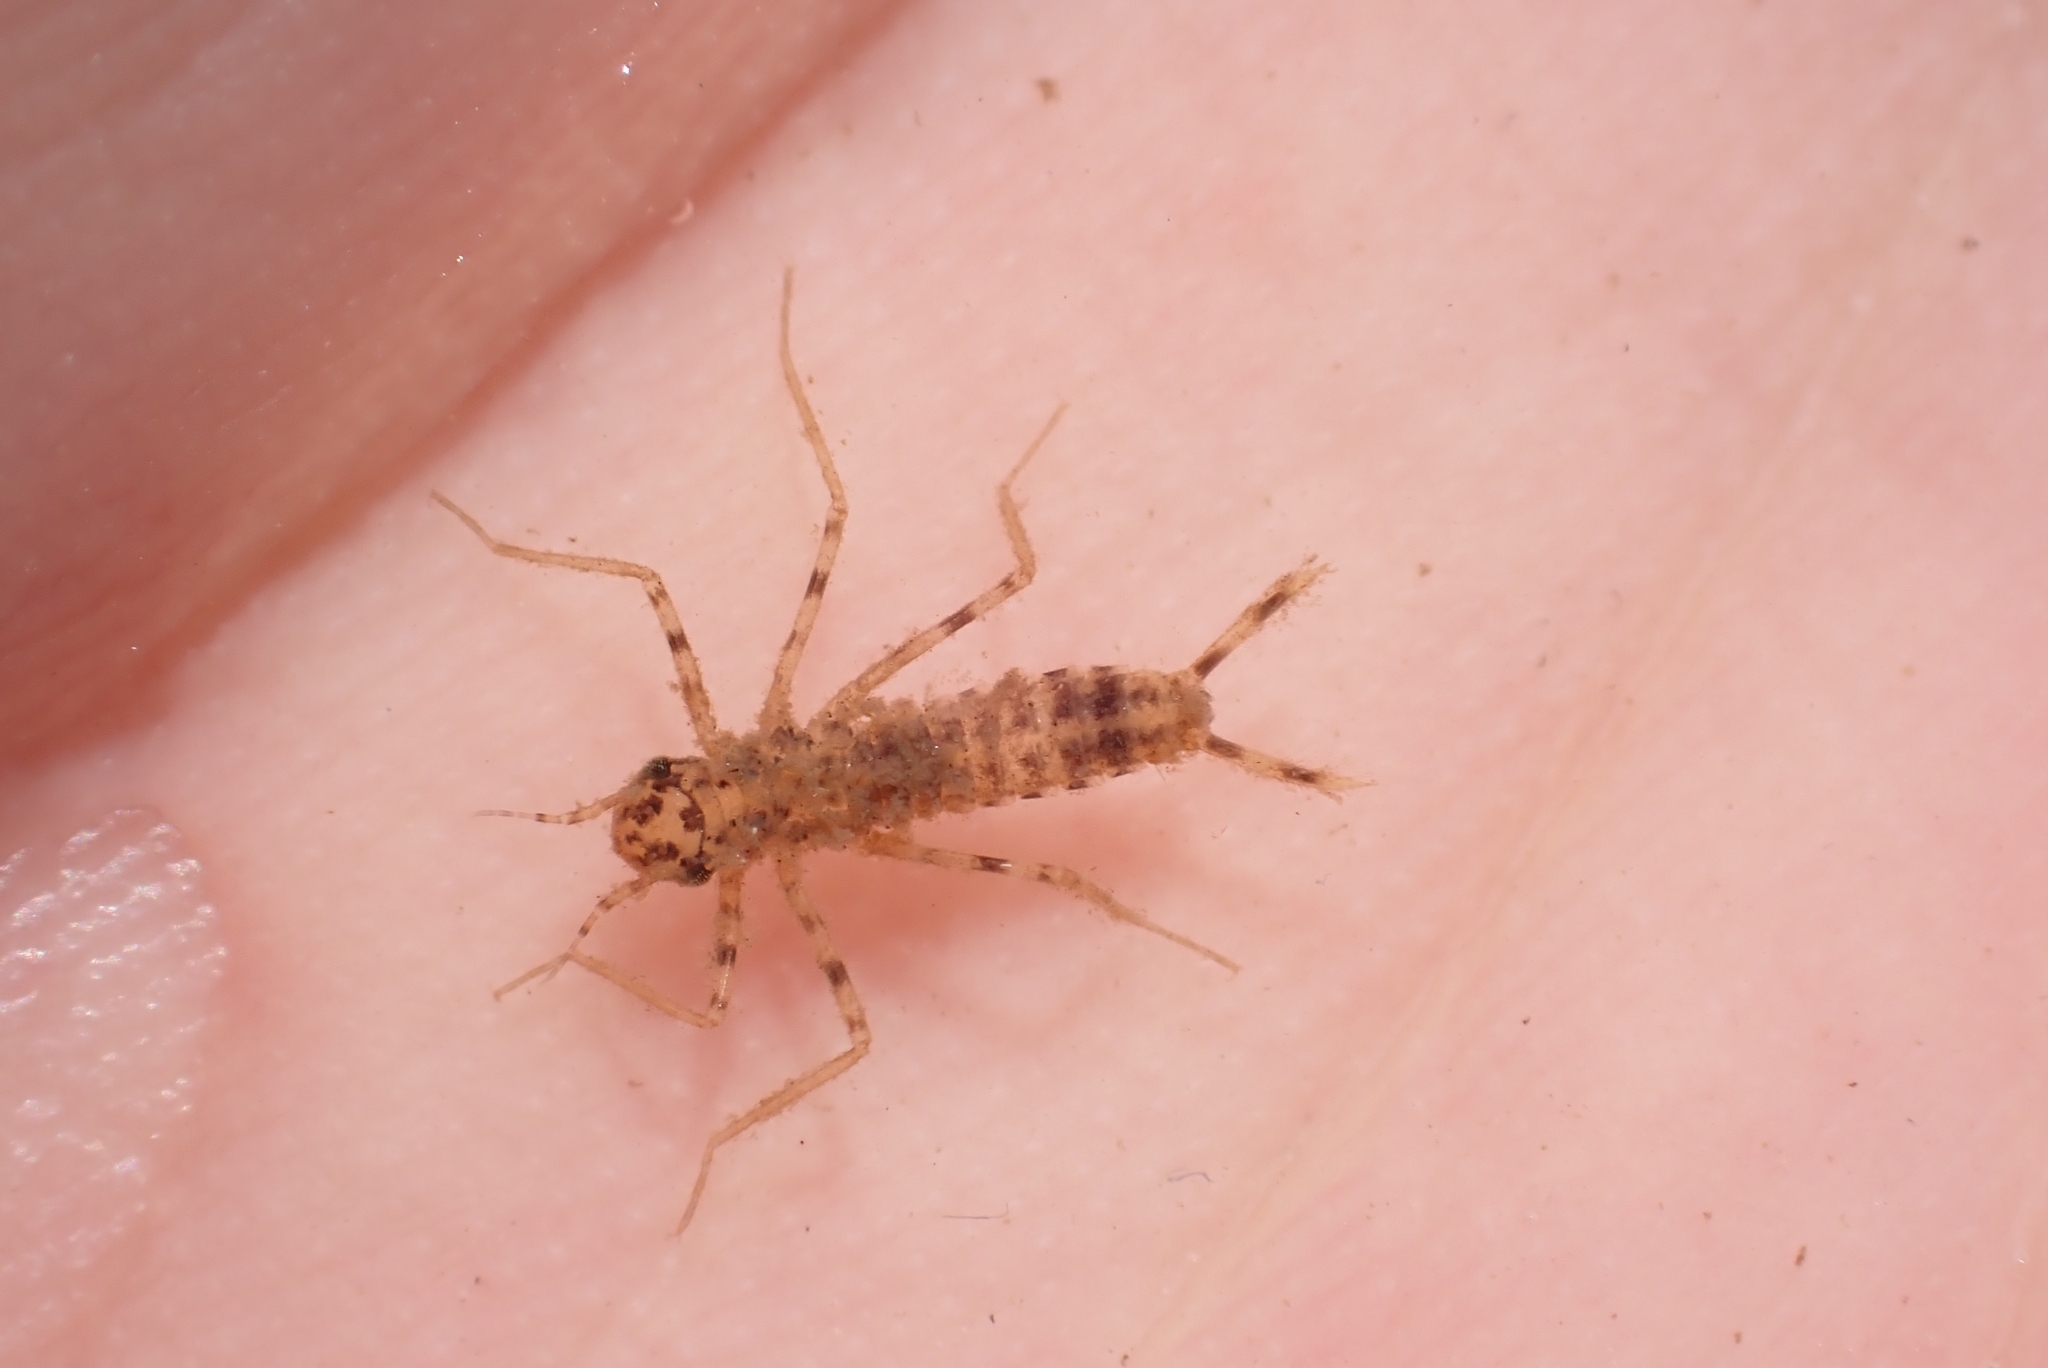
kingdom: Animalia
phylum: Arthropoda
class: Insecta
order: Odonata
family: Chlorocyphidae
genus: Platycypha
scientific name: Platycypha caligata
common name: Dancing jewel
